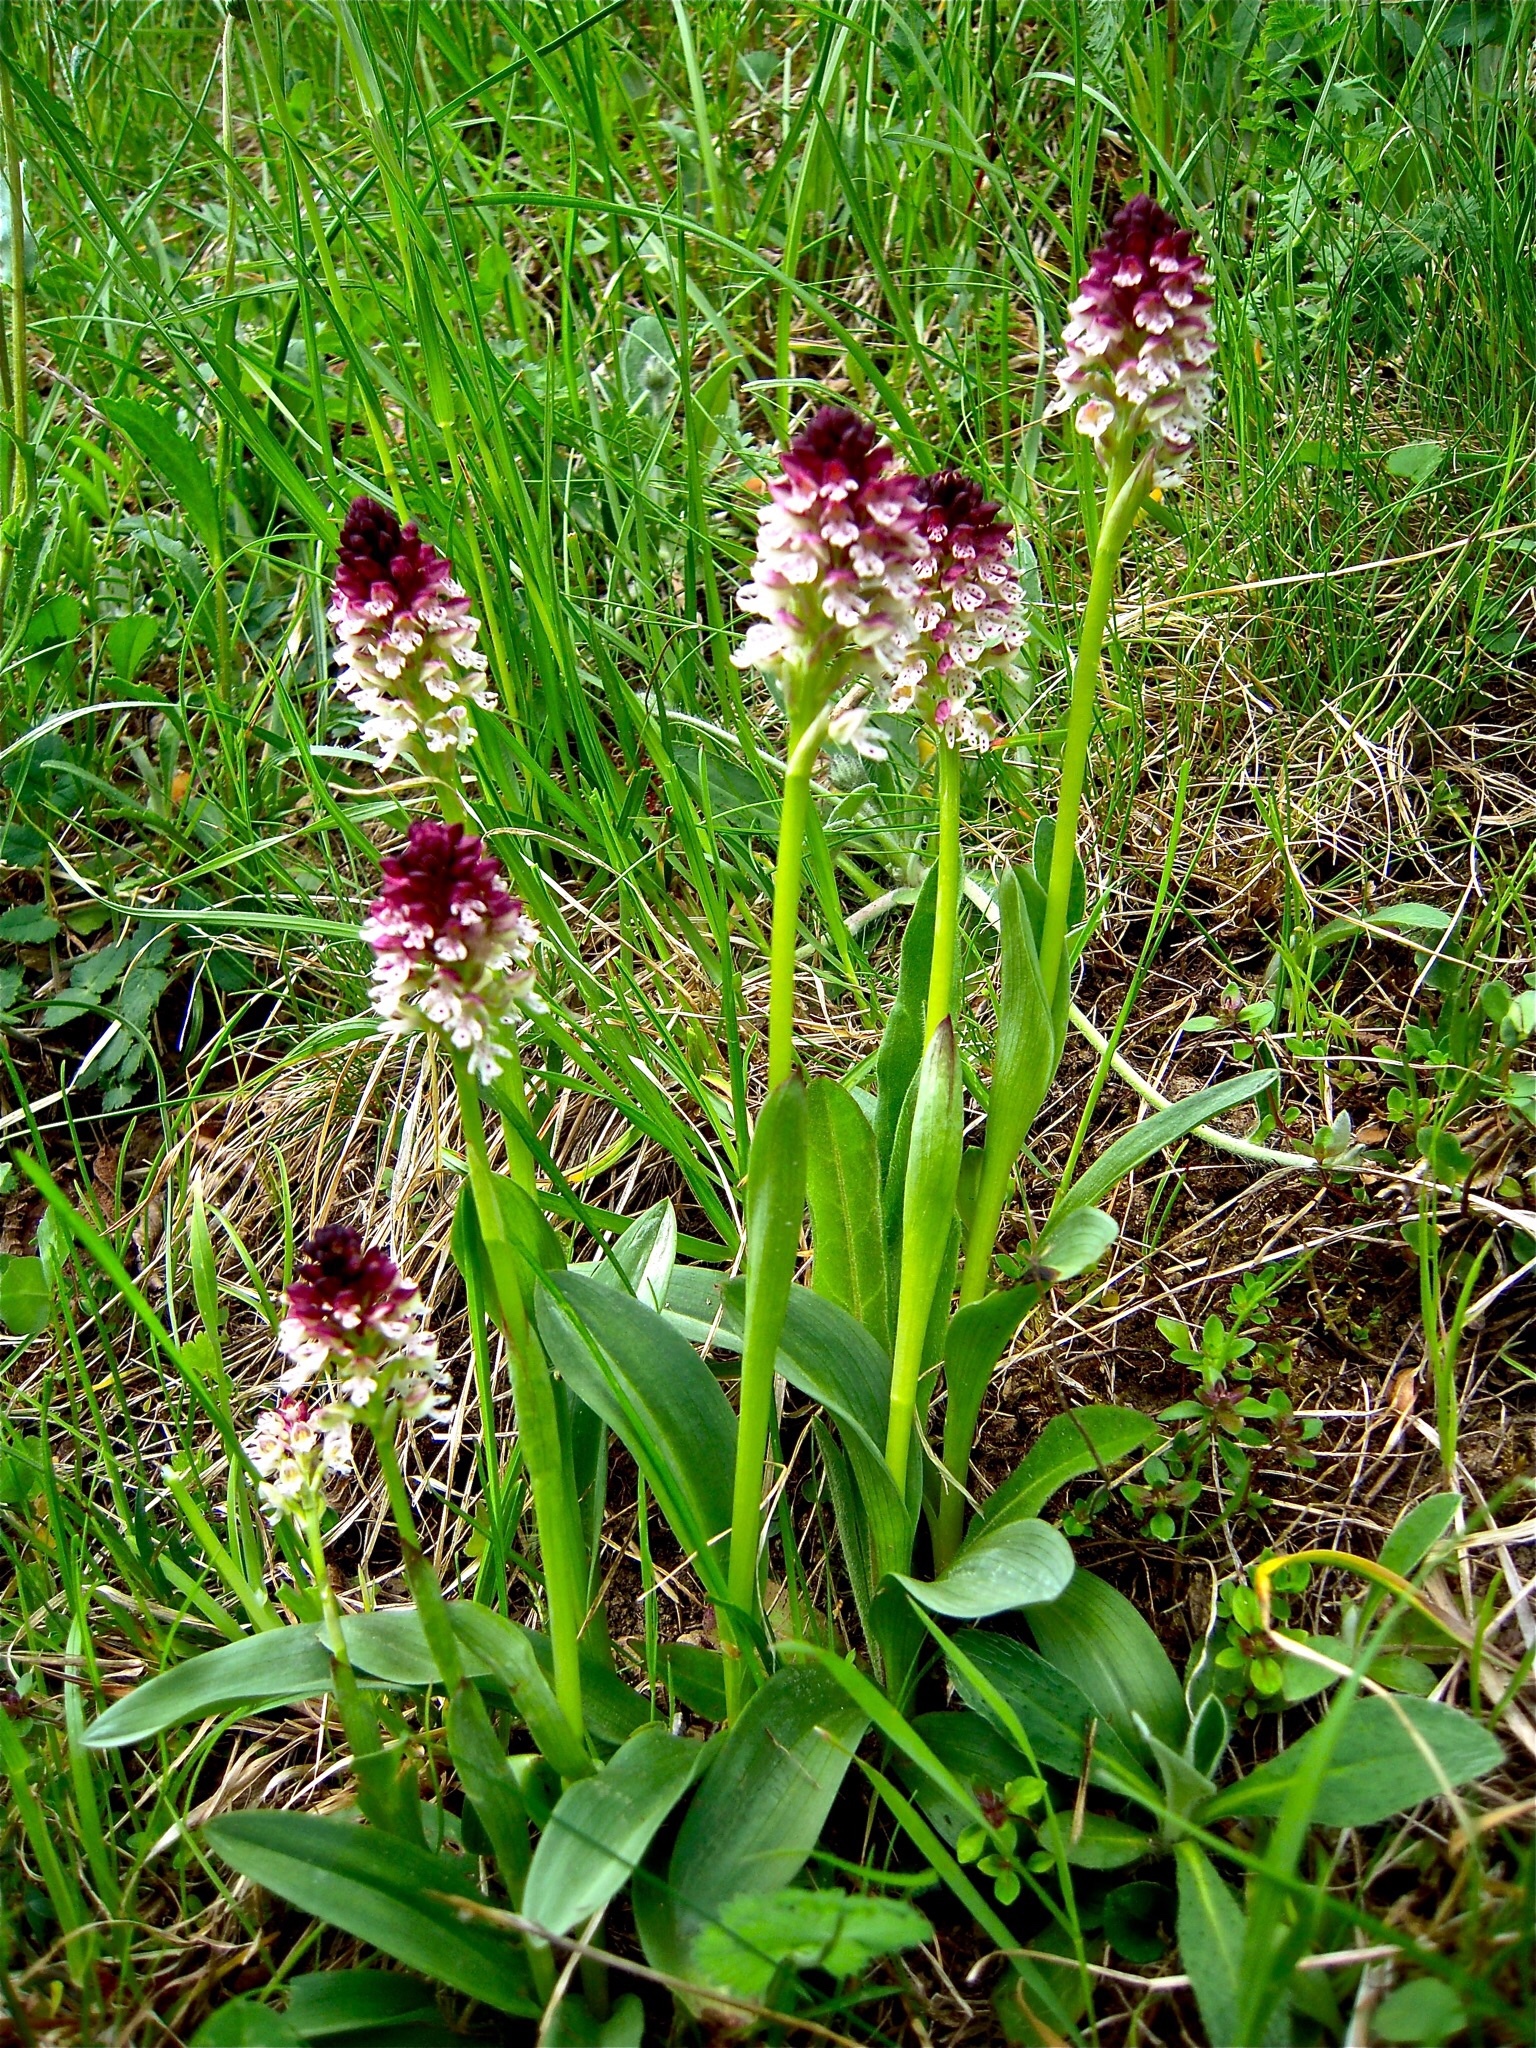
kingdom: Plantae
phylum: Tracheophyta
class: Liliopsida
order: Asparagales
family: Orchidaceae
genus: Neotinea
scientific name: Neotinea ustulata
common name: Burnt orchid
